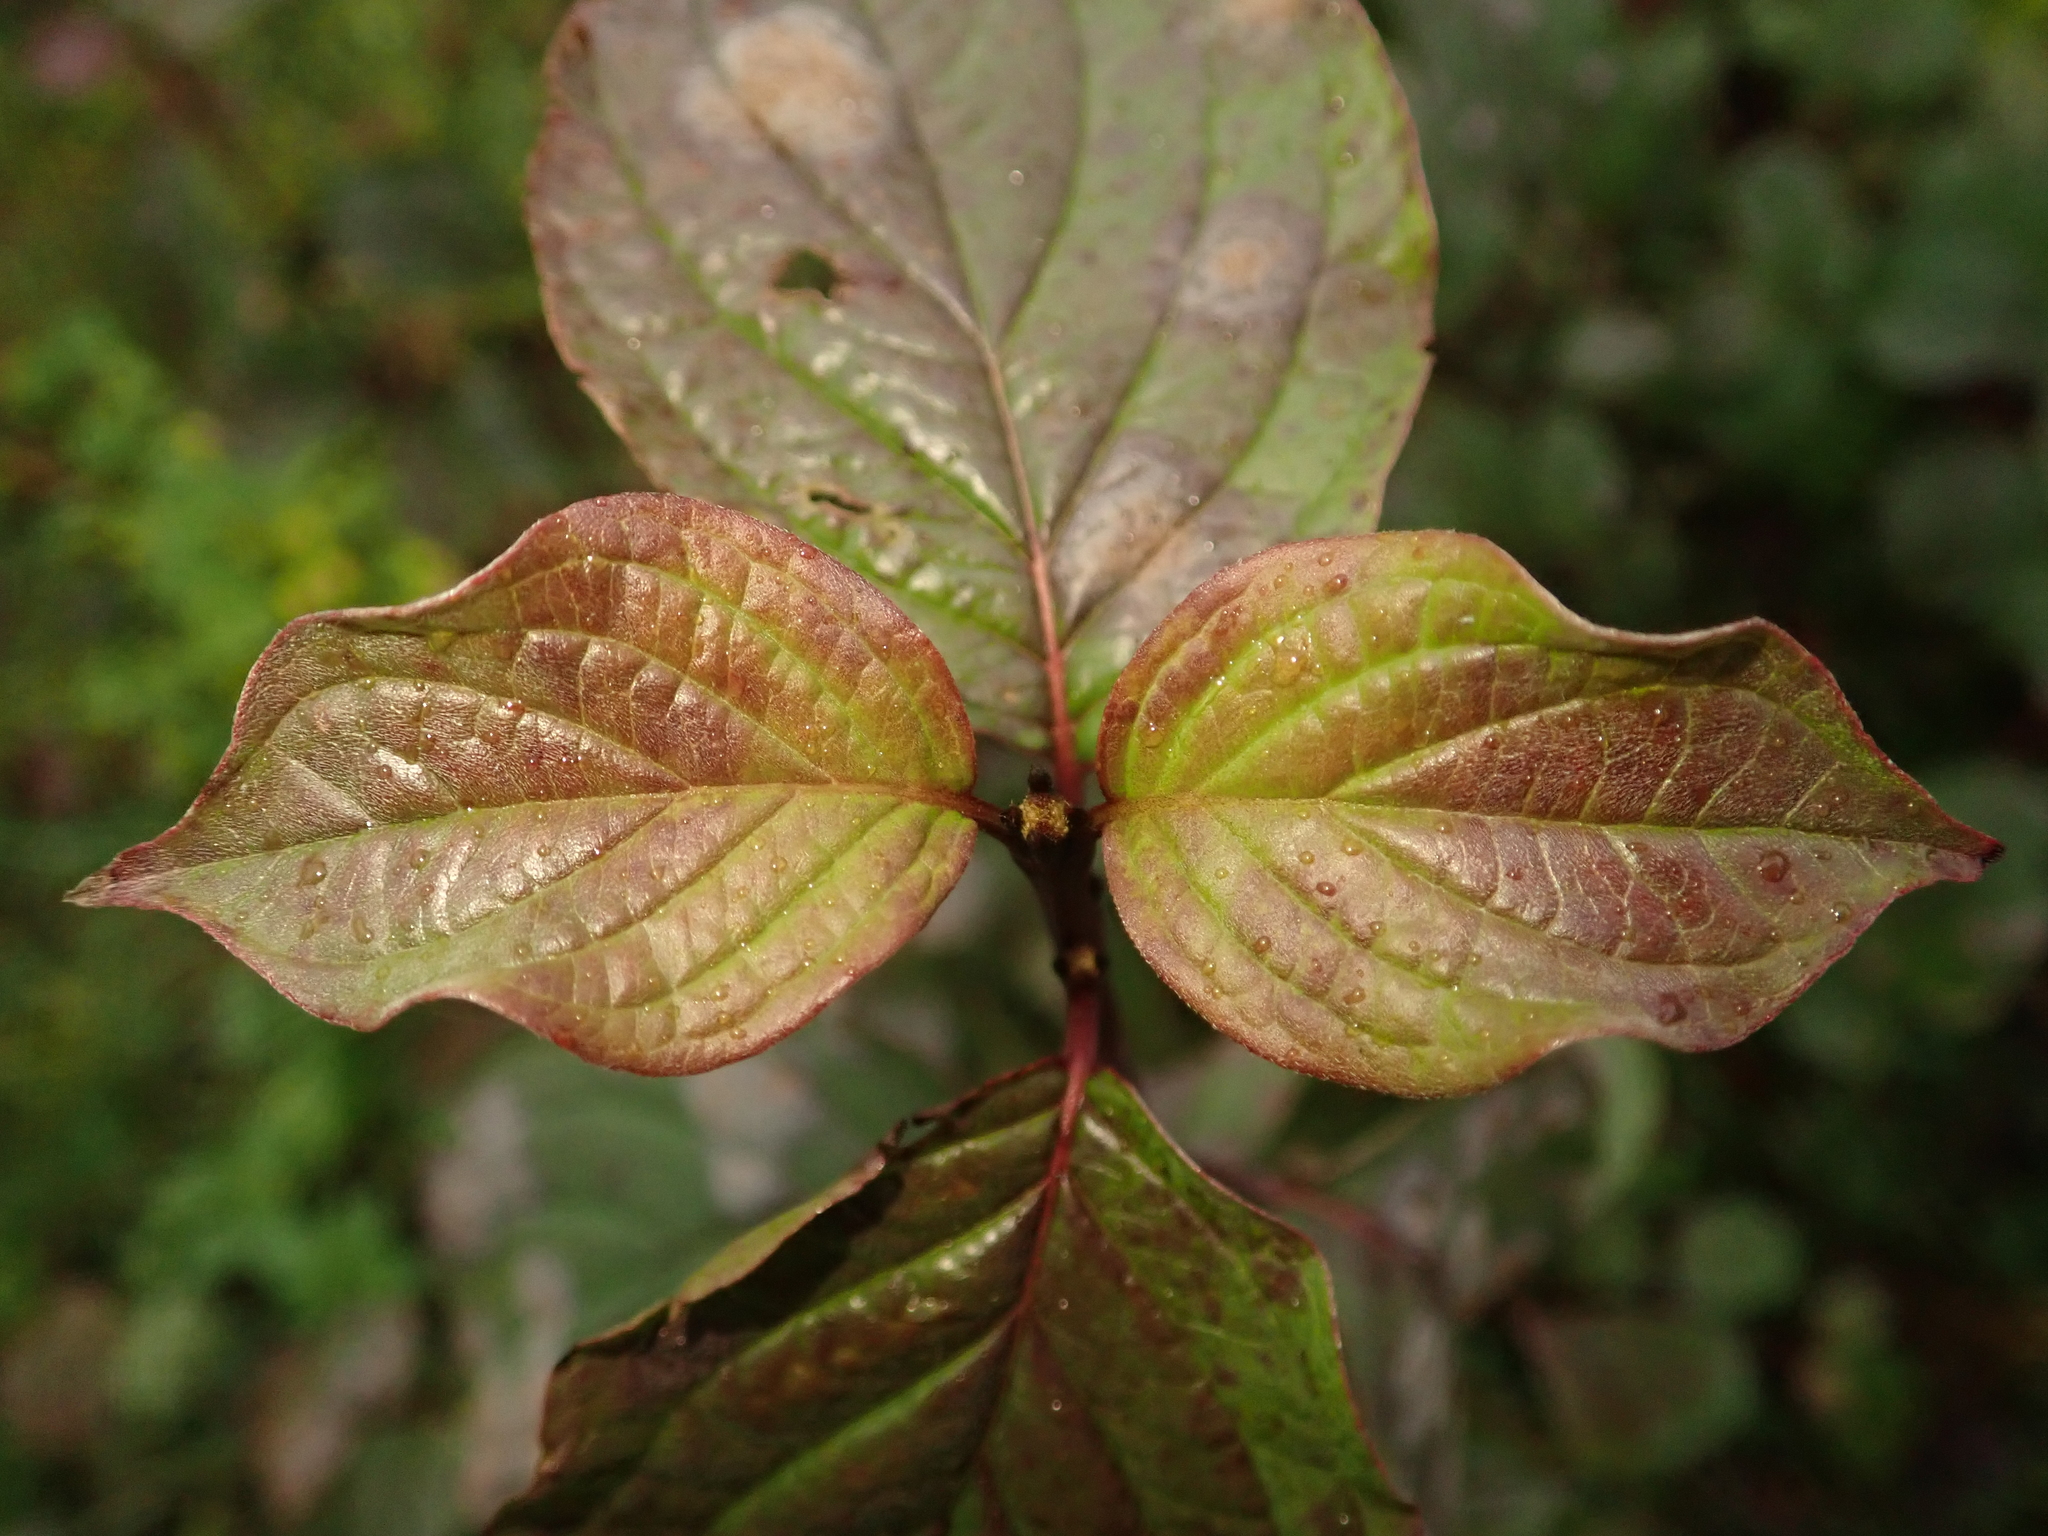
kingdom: Plantae
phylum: Tracheophyta
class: Magnoliopsida
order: Cornales
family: Cornaceae
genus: Cornus
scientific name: Cornus sanguinea
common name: Dogwood
